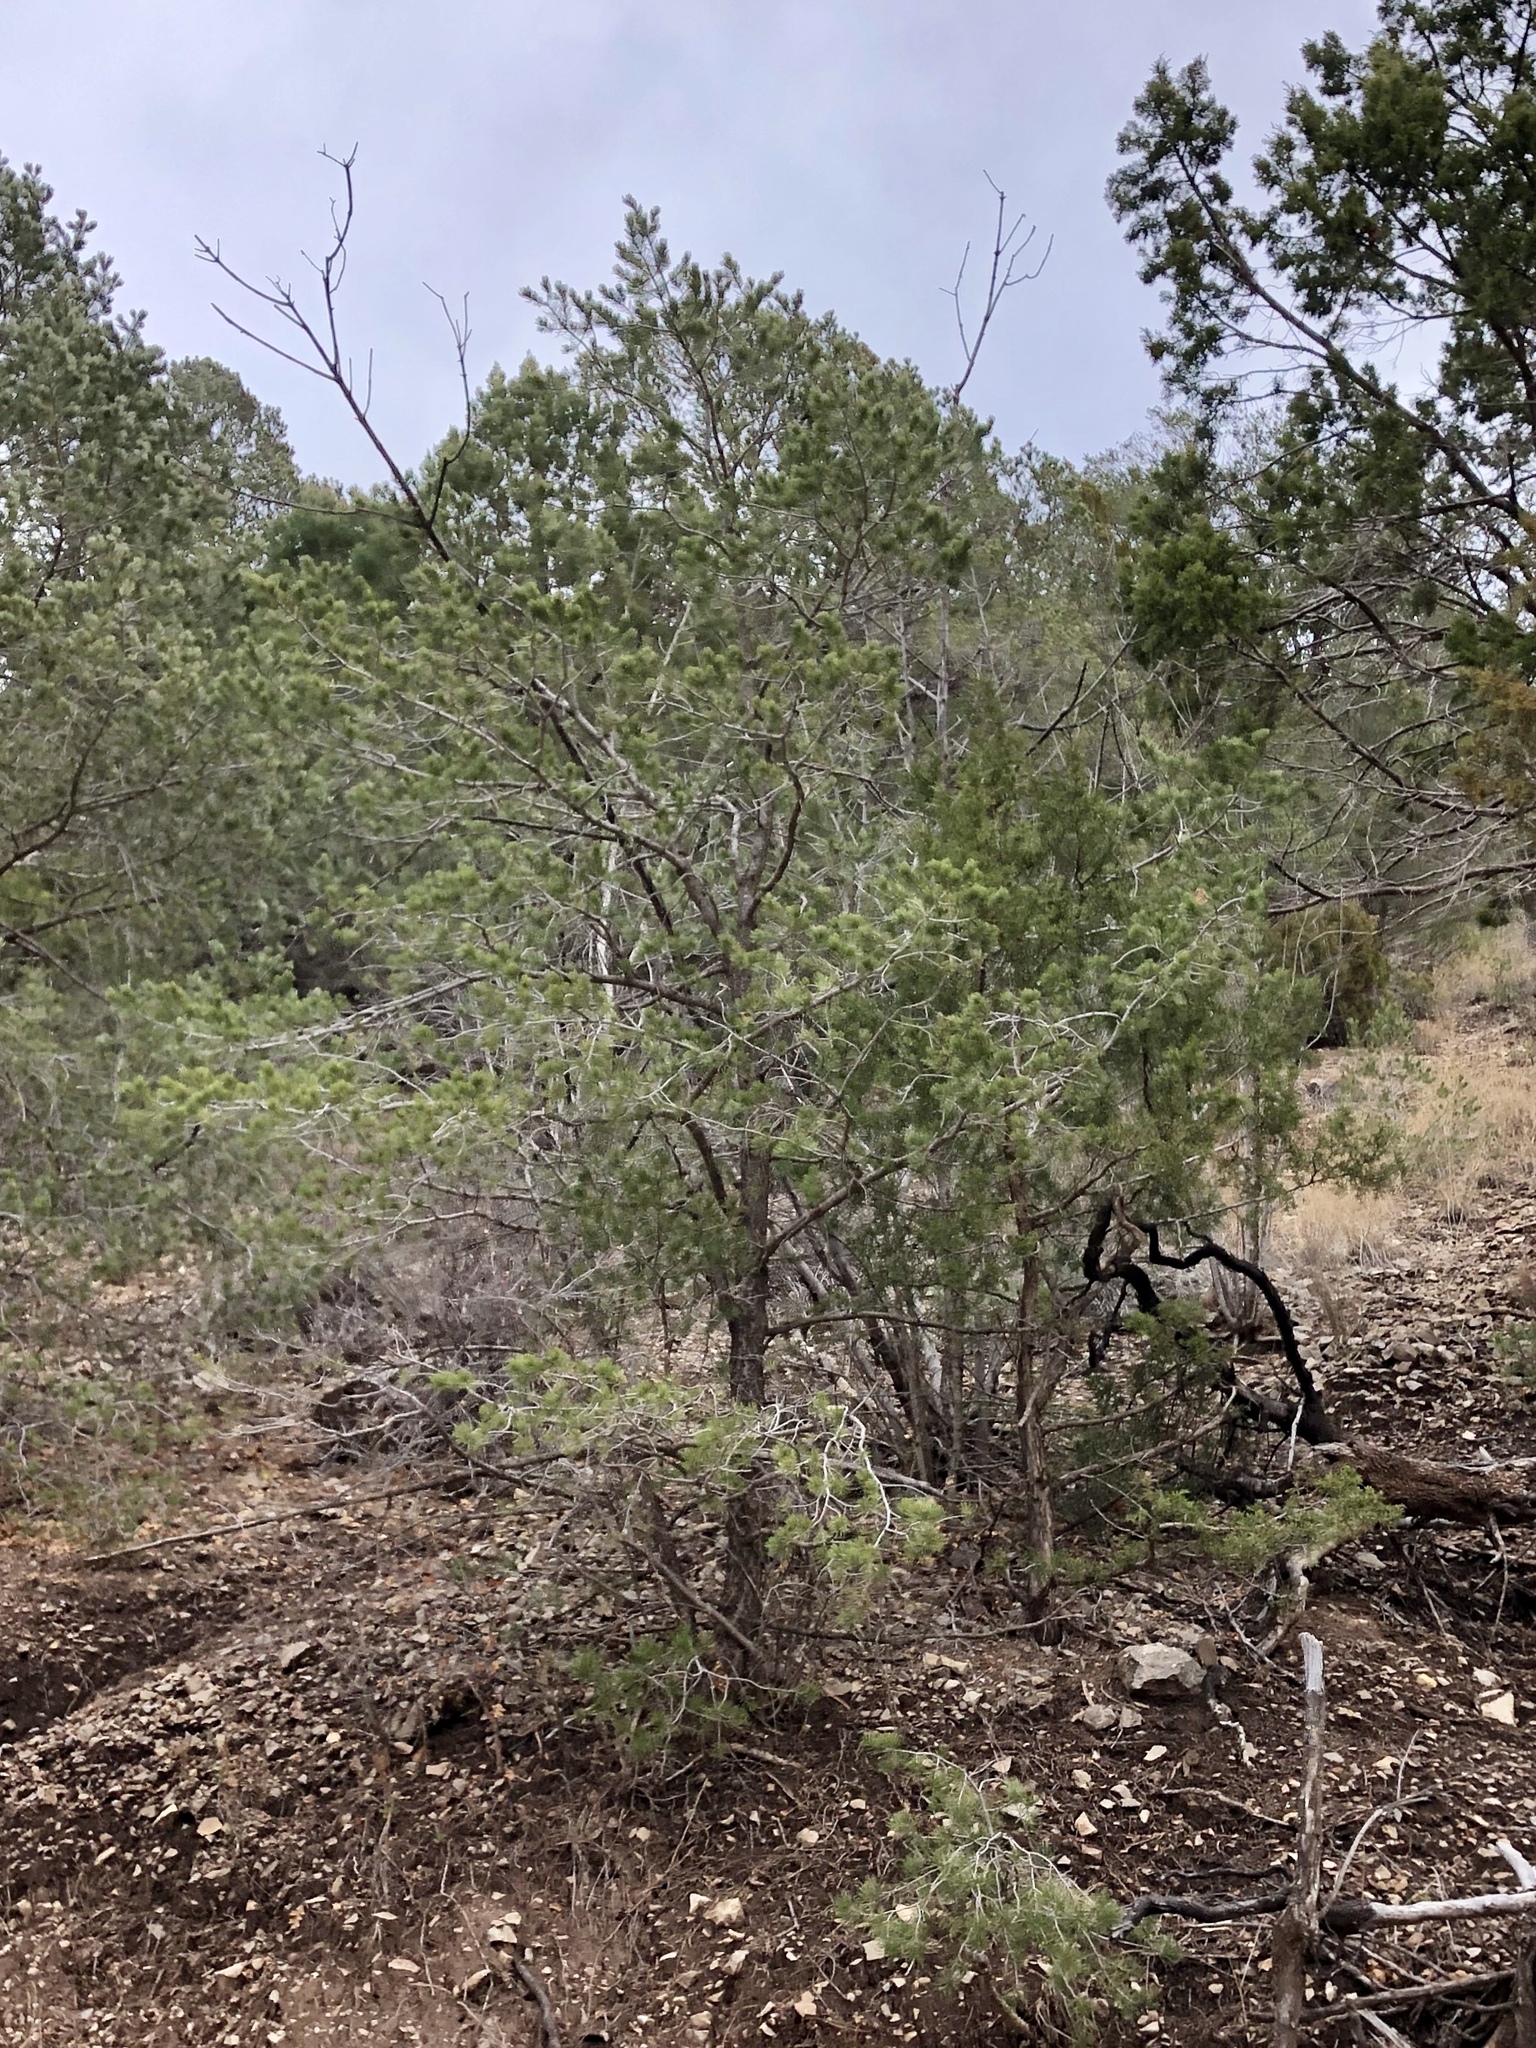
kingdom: Plantae
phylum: Tracheophyta
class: Pinopsida
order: Pinales
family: Pinaceae
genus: Pinus
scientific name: Pinus edulis
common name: Colorado pinyon
